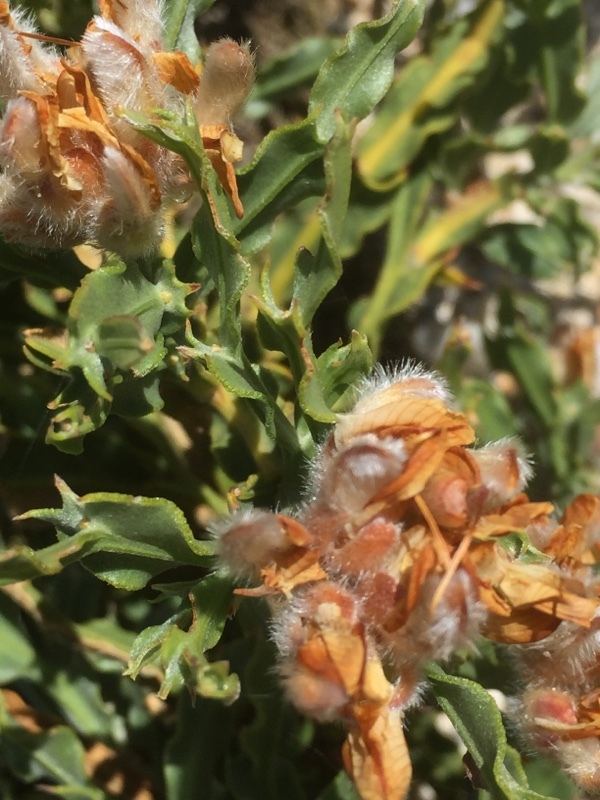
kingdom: Plantae
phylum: Tracheophyta
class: Magnoliopsida
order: Fabales
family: Fabaceae
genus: Genista
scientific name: Genista tridentata
